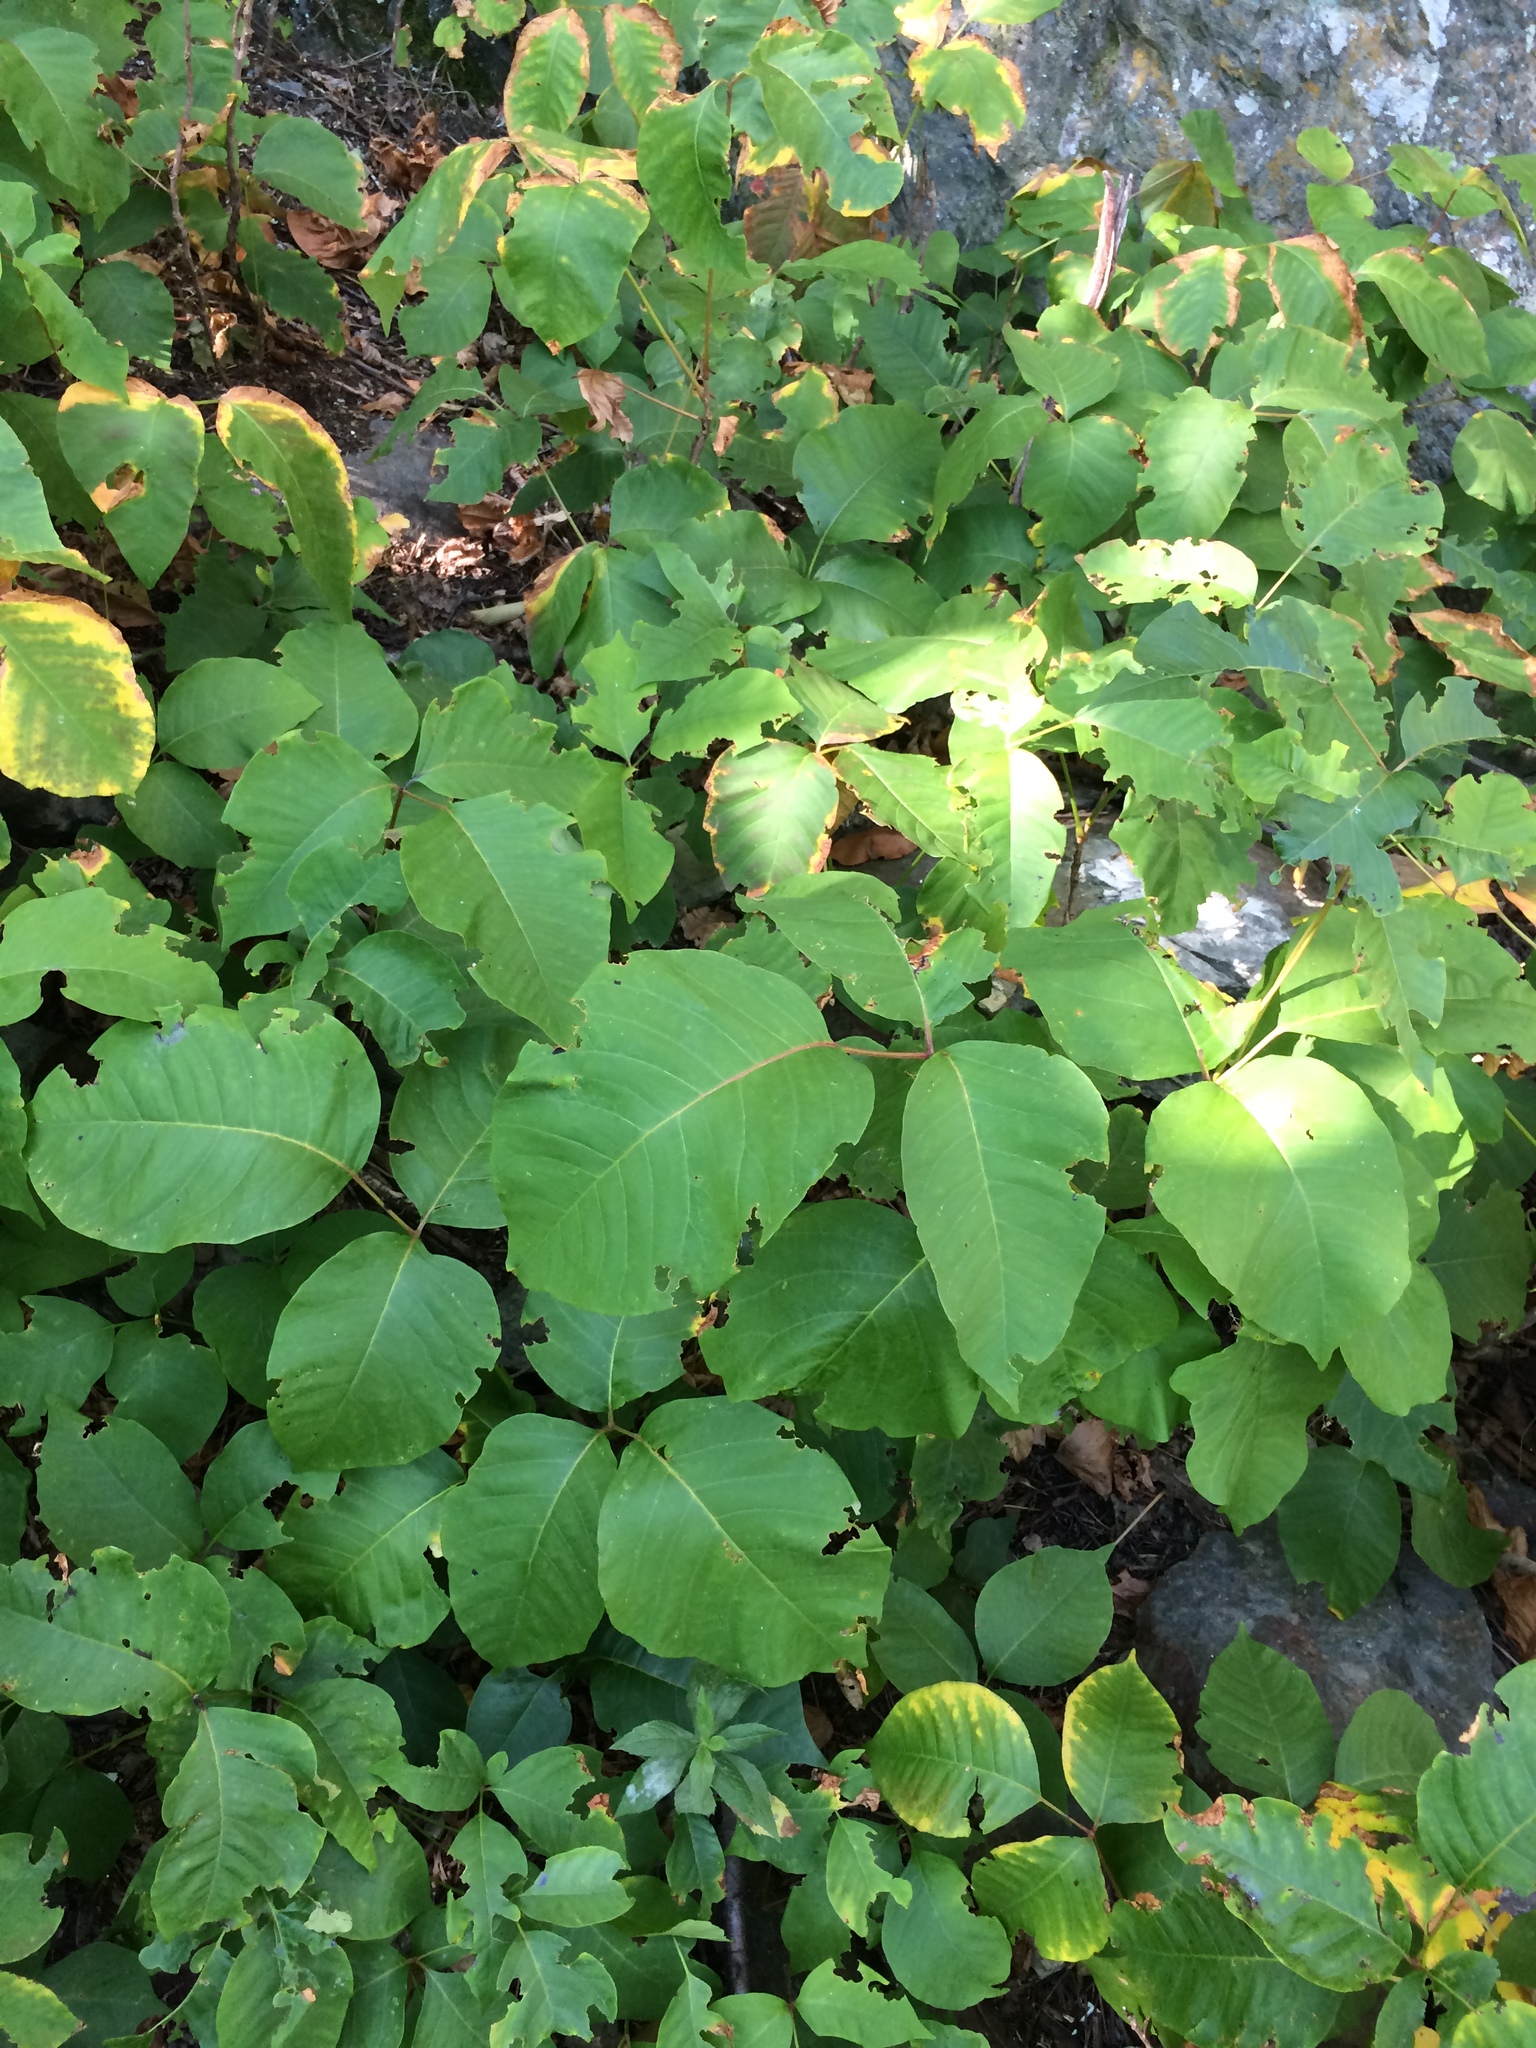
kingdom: Plantae
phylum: Tracheophyta
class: Magnoliopsida
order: Sapindales
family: Anacardiaceae
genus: Toxicodendron
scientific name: Toxicodendron rydbergii
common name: Rydberg's poison-ivy
